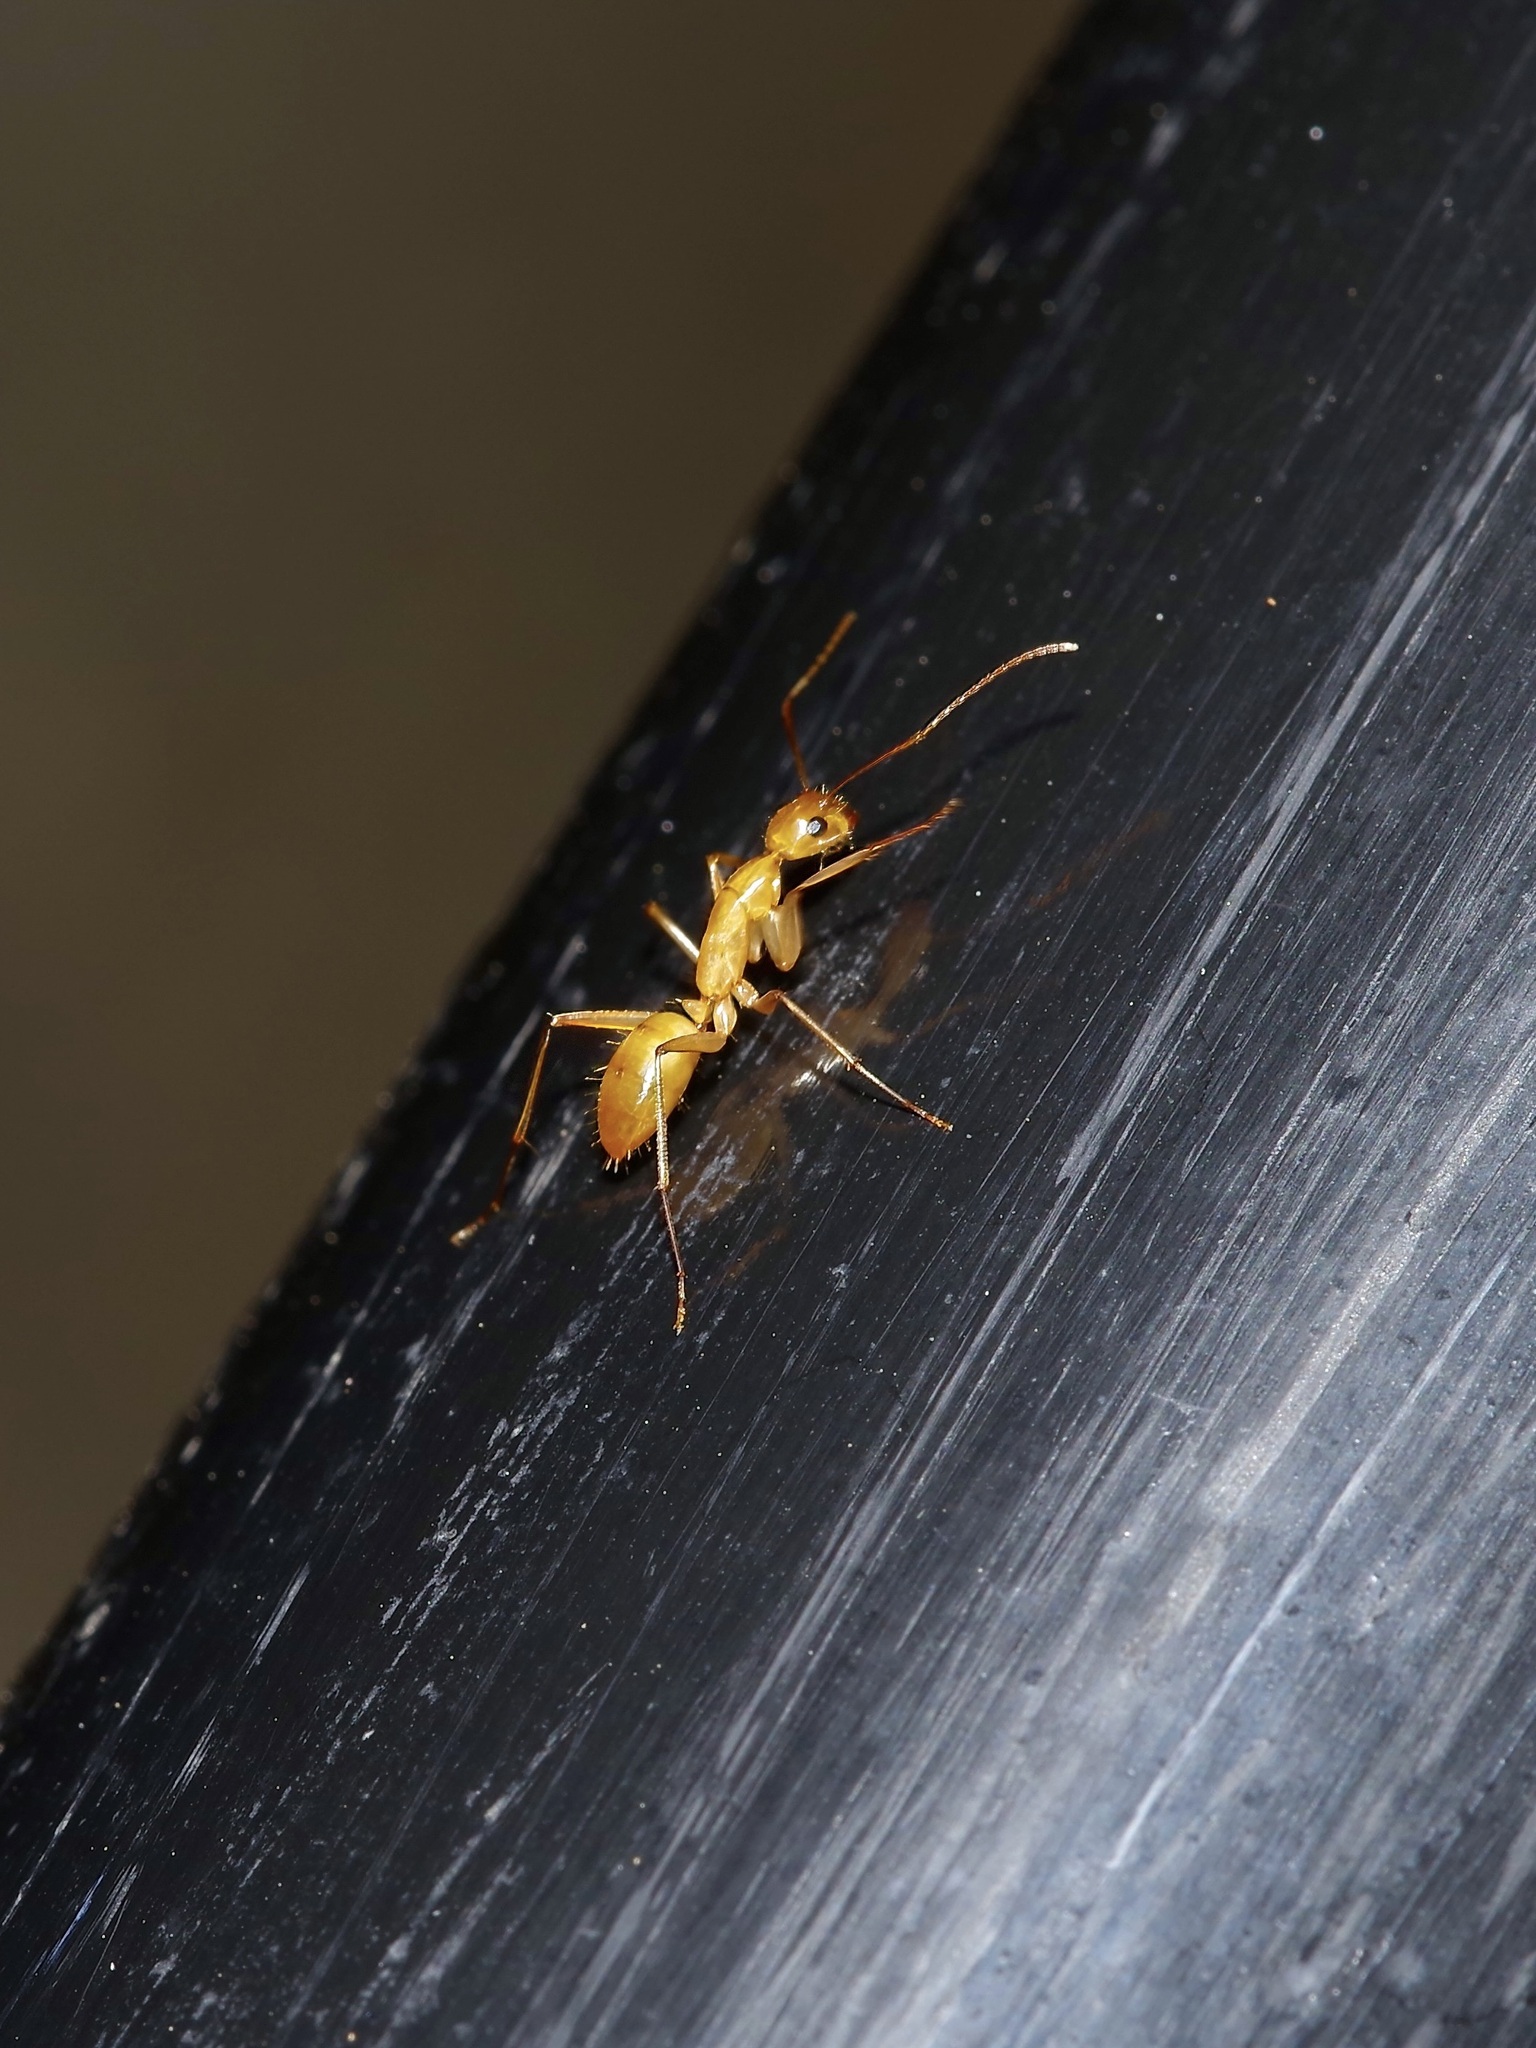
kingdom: Animalia
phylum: Arthropoda
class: Insecta
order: Hymenoptera
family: Formicidae
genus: Camponotus
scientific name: Camponotus festinatus
